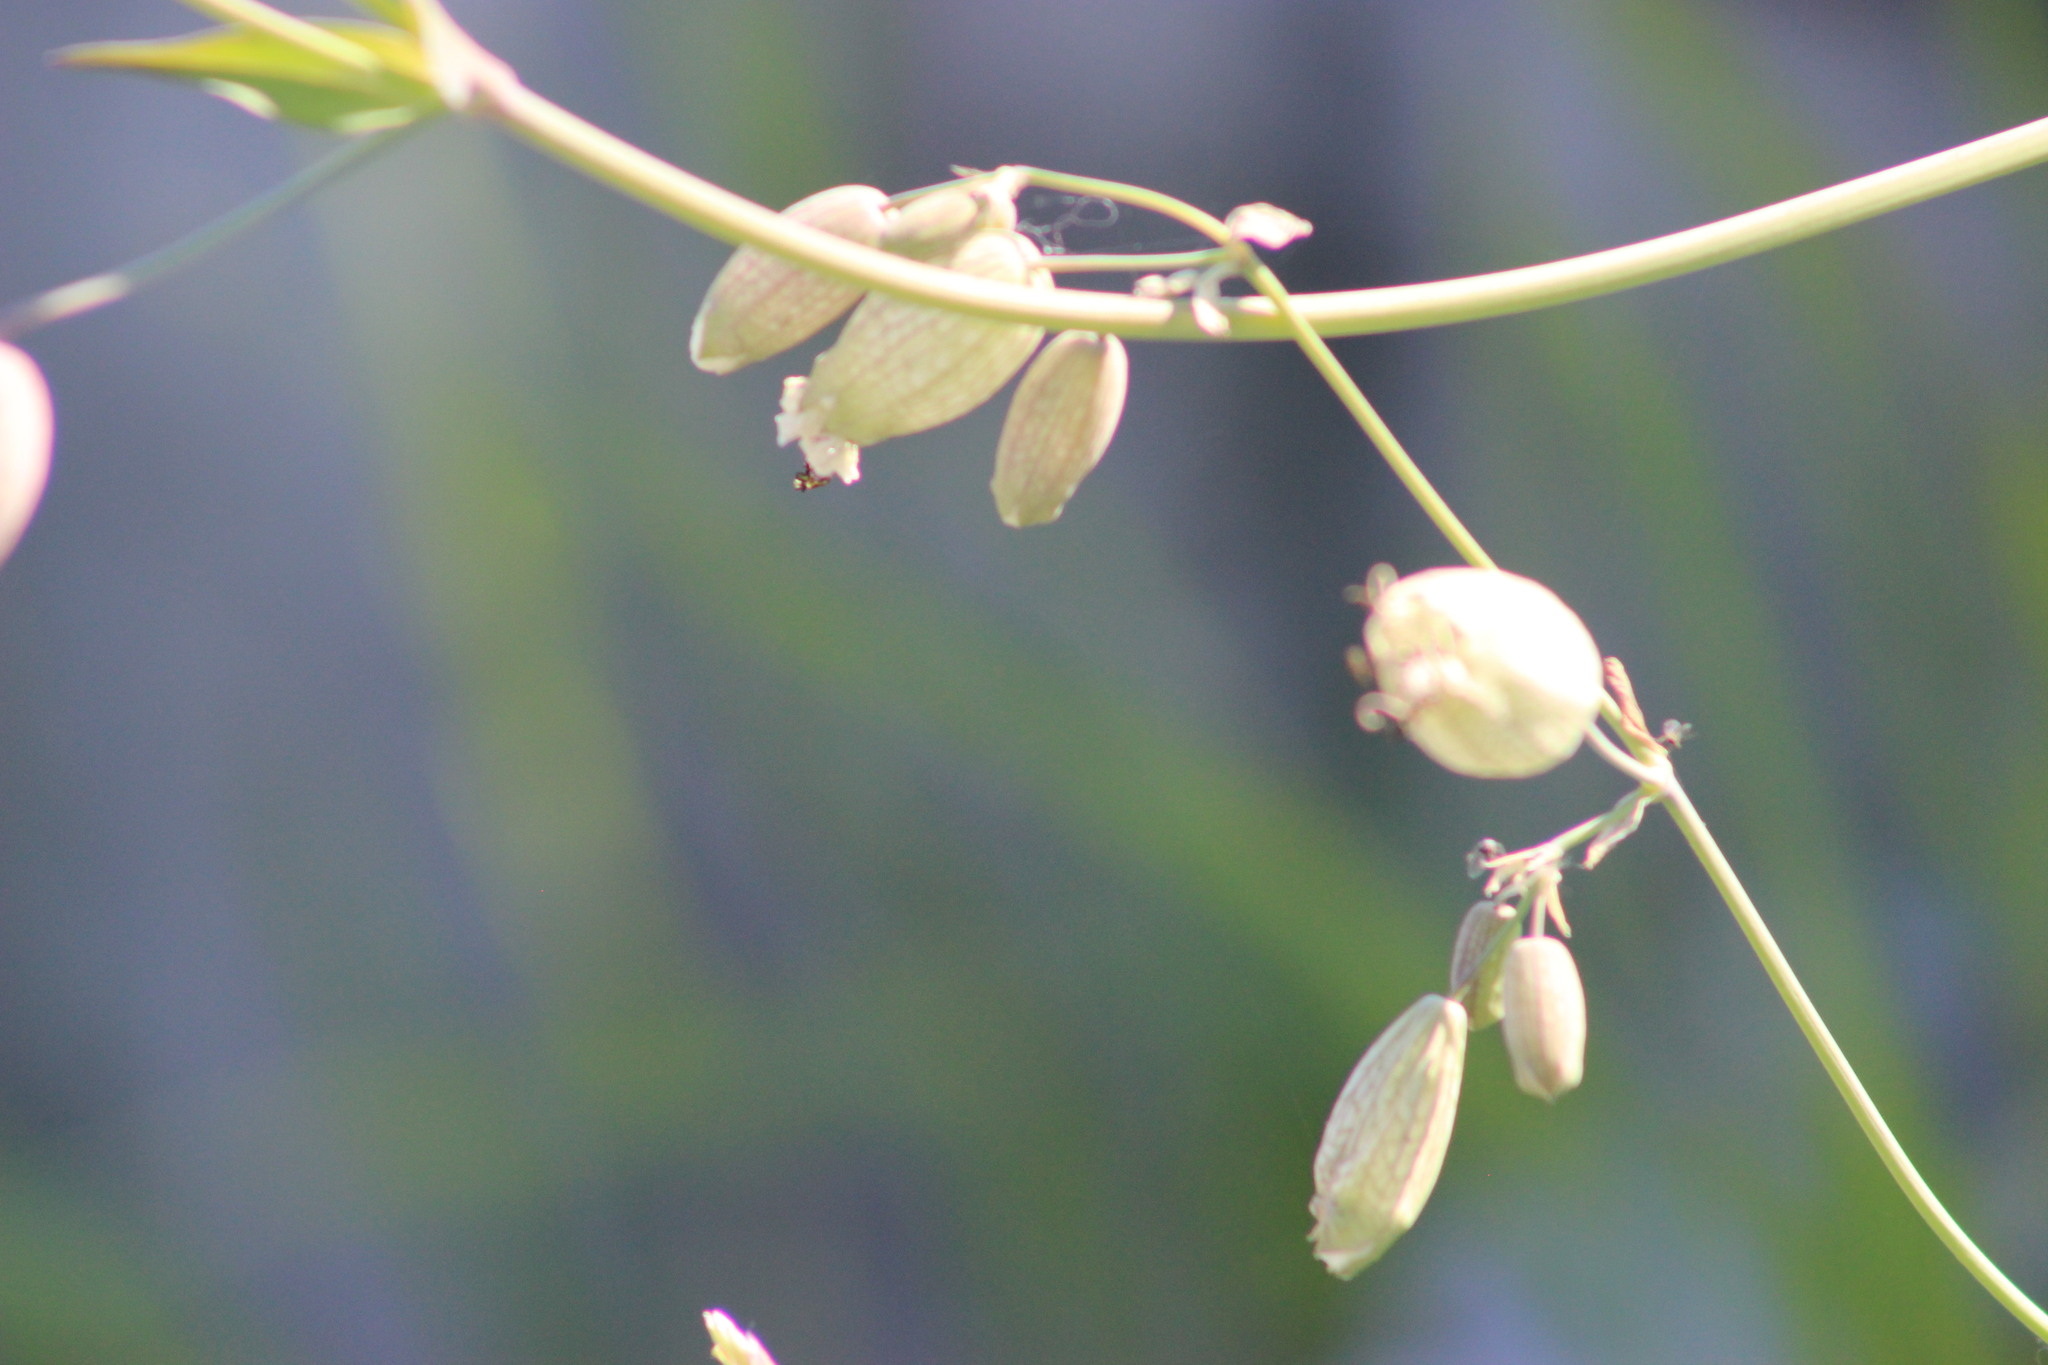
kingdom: Plantae
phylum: Tracheophyta
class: Magnoliopsida
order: Caryophyllales
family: Caryophyllaceae
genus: Silene
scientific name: Silene vulgaris
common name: Bladder campion
